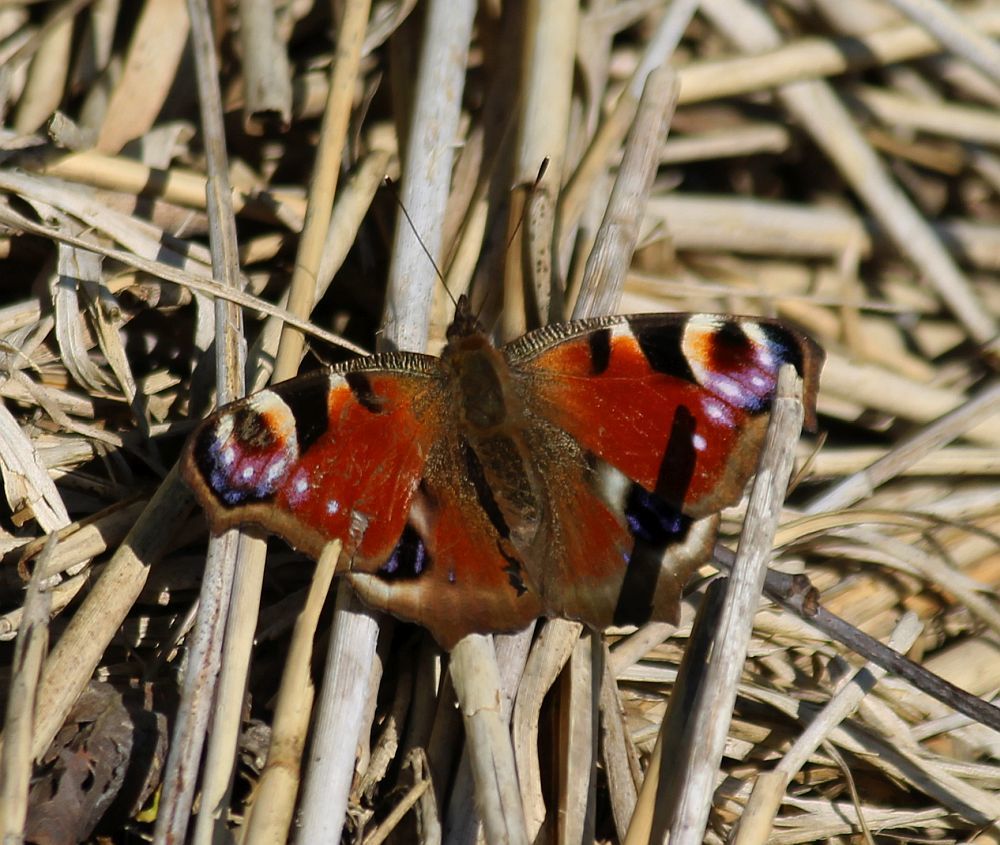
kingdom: Animalia
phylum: Arthropoda
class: Insecta
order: Lepidoptera
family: Nymphalidae
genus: Aglais
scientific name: Aglais io
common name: Peacock
